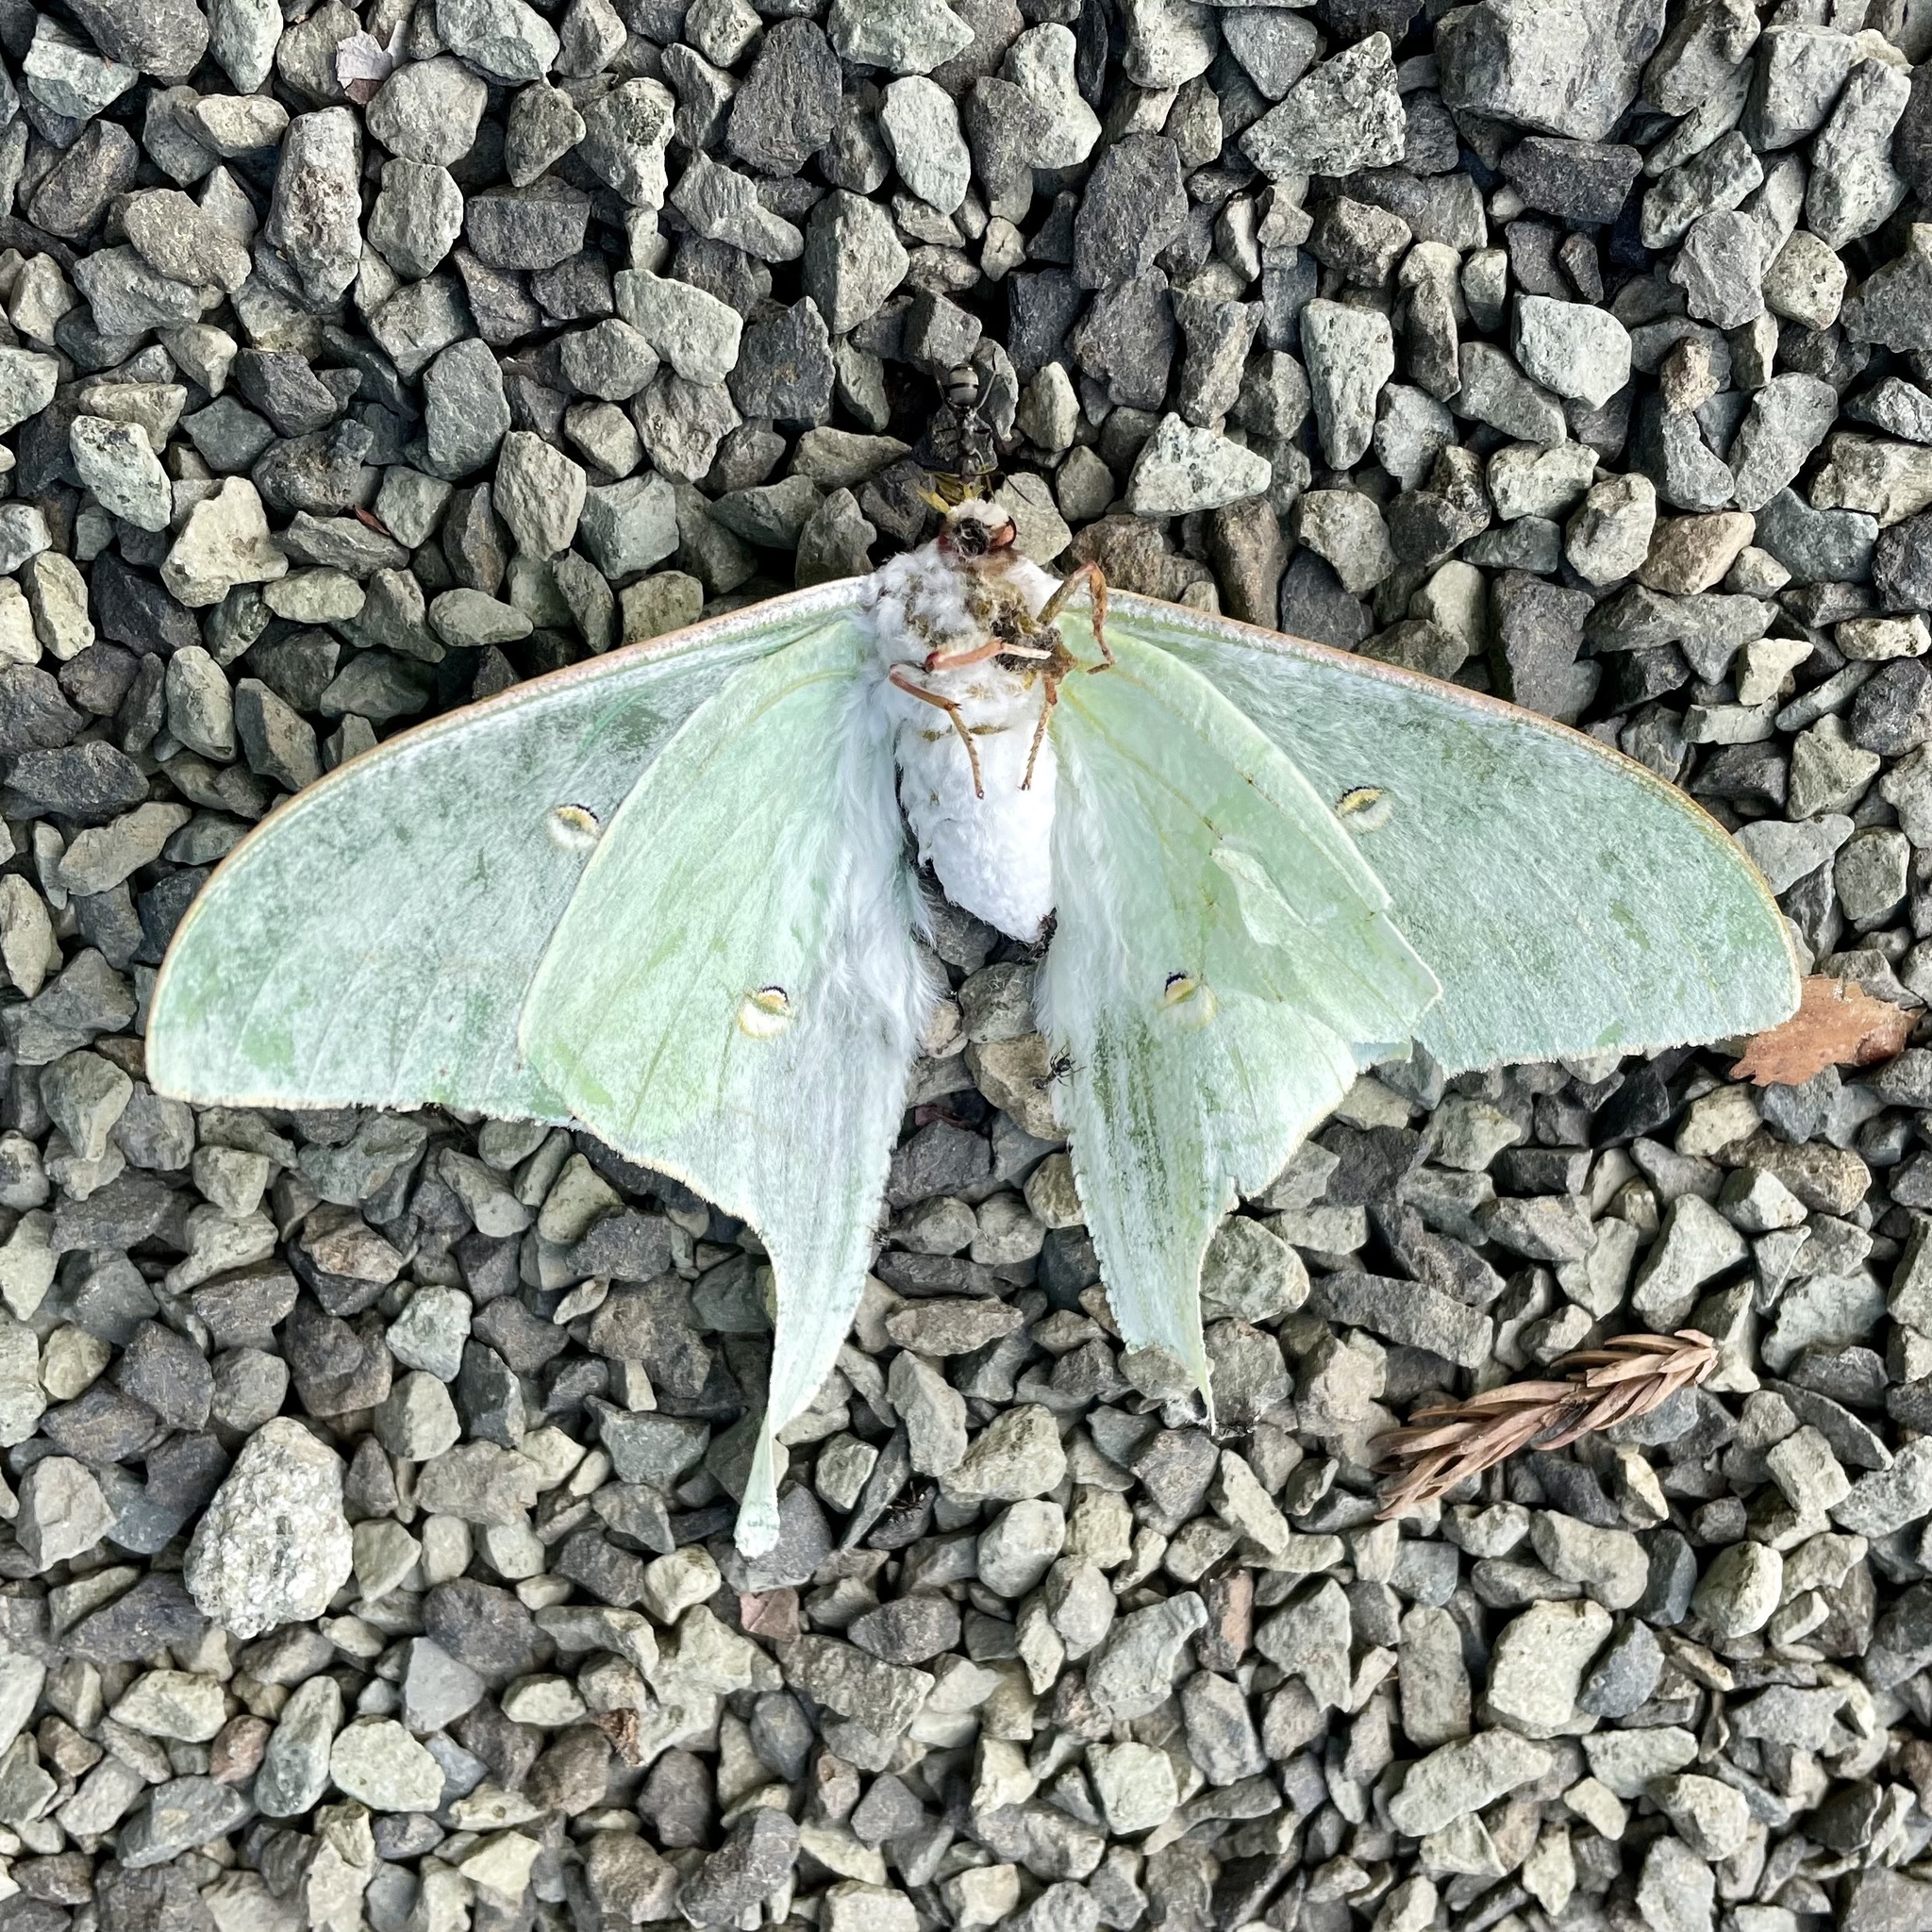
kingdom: Animalia
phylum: Arthropoda
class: Insecta
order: Lepidoptera
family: Saturniidae
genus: Actias
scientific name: Actias aliena
